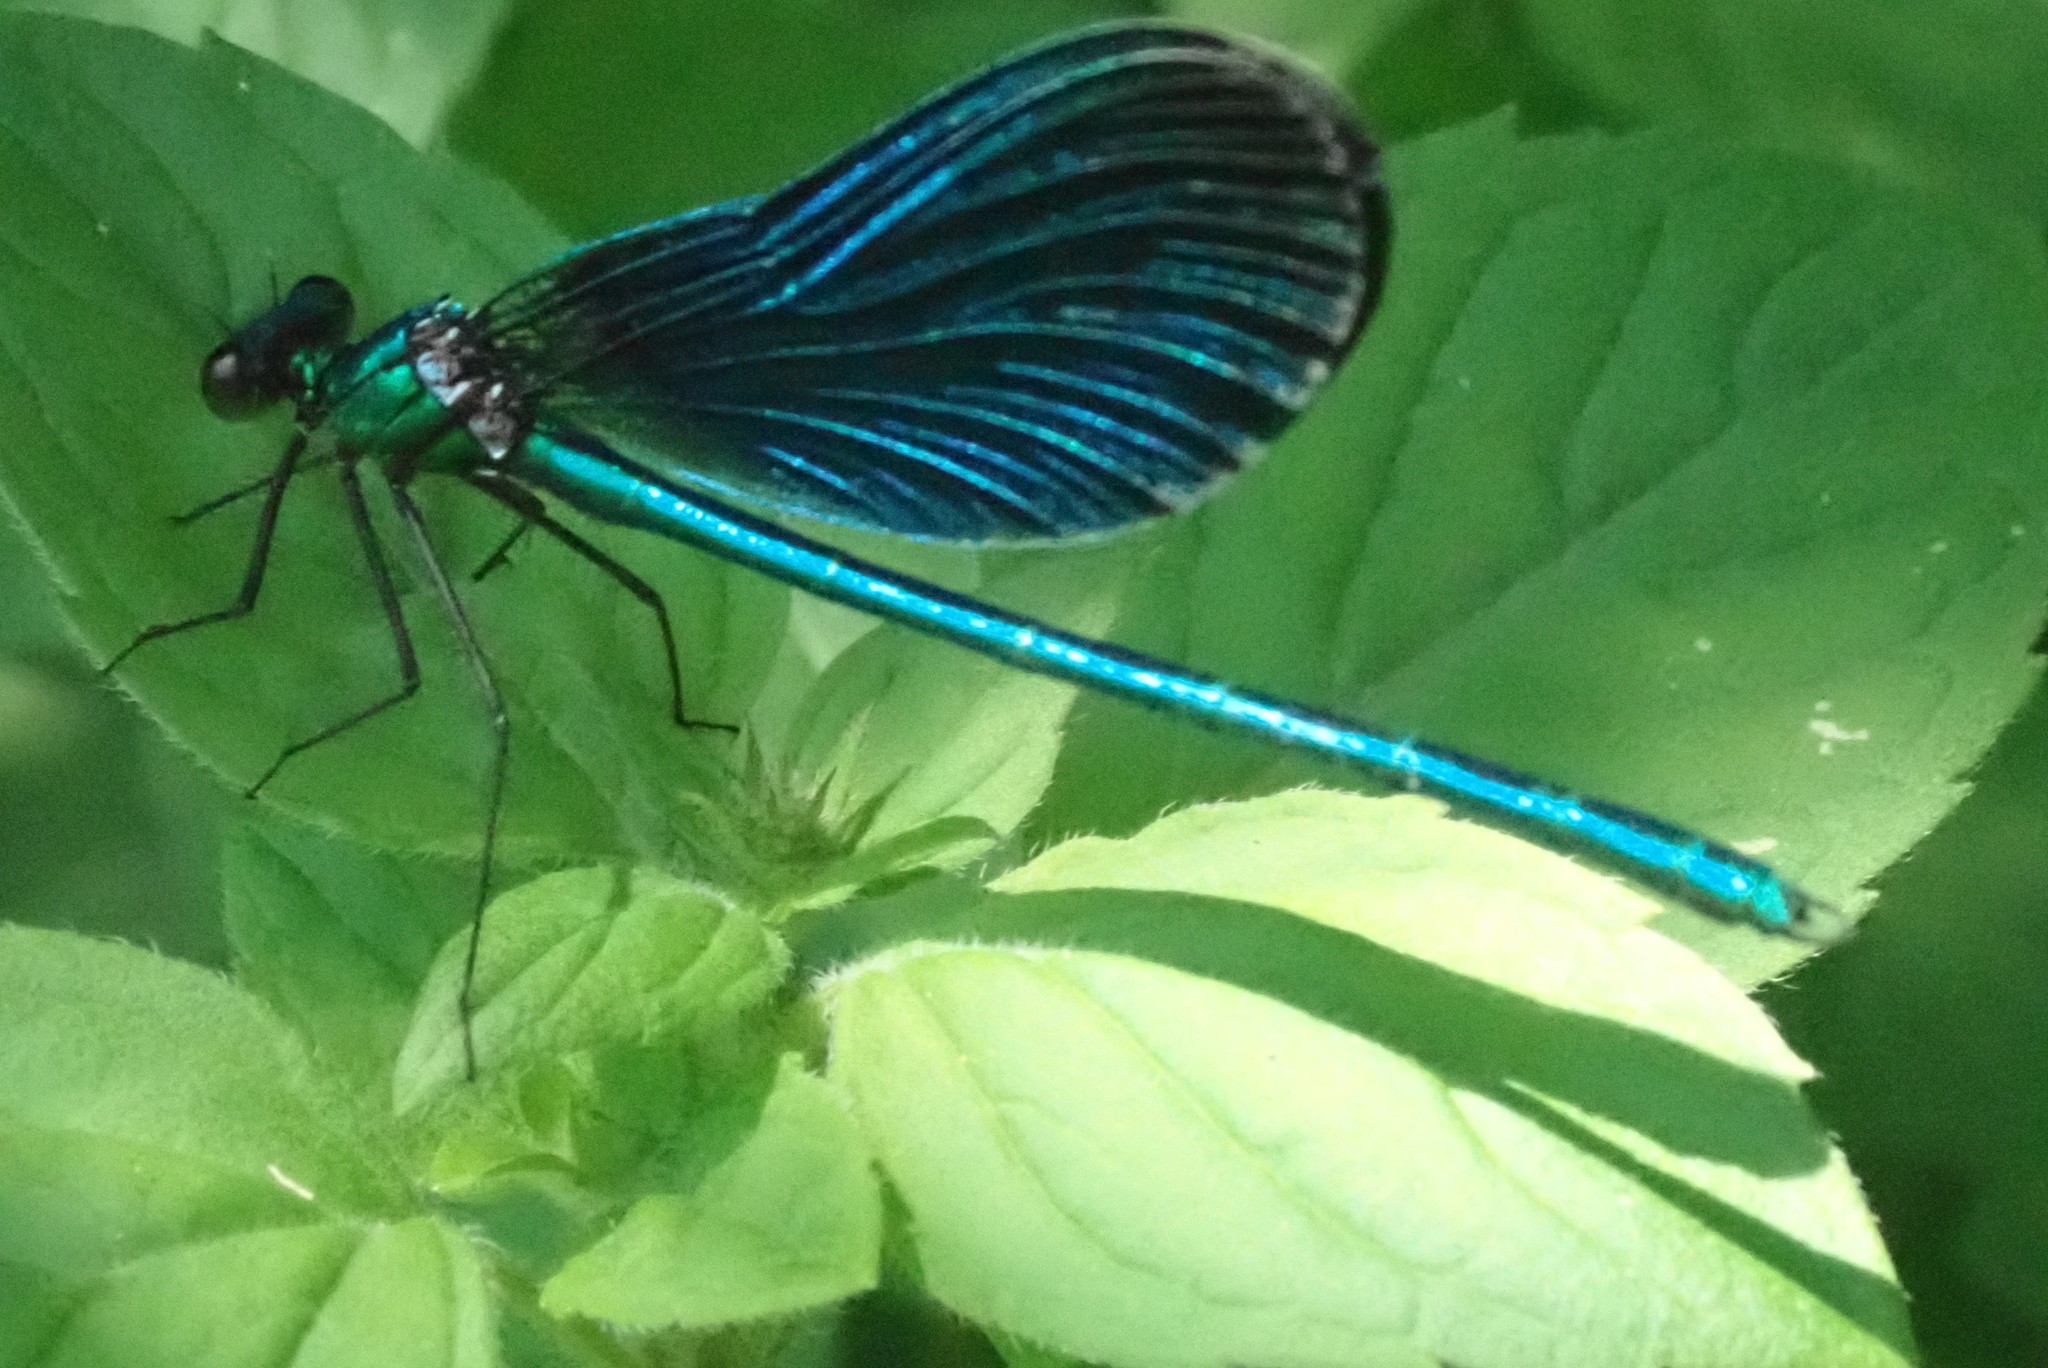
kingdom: Animalia
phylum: Arthropoda
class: Insecta
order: Odonata
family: Calopterygidae
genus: Calopteryx
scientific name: Calopteryx virgo
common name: Beautiful demoiselle
